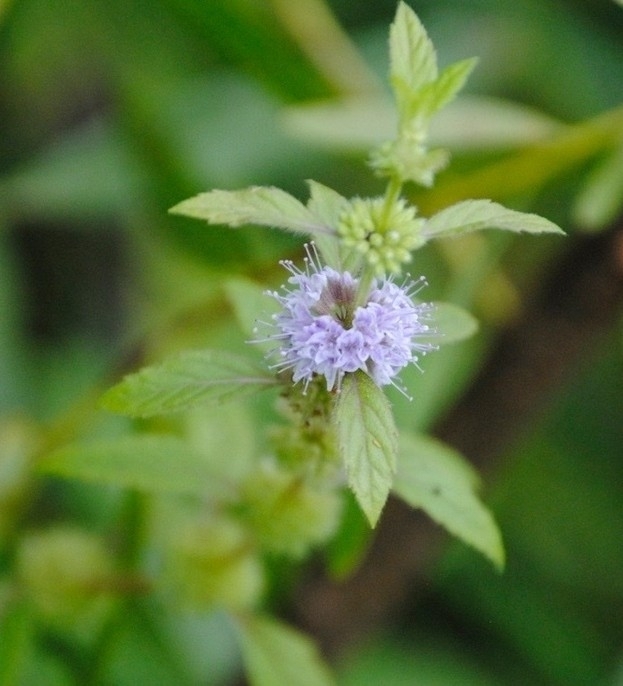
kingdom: Plantae
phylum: Tracheophyta
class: Magnoliopsida
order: Lamiales
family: Lamiaceae
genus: Mentha
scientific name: Mentha canadensis
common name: American corn mint
